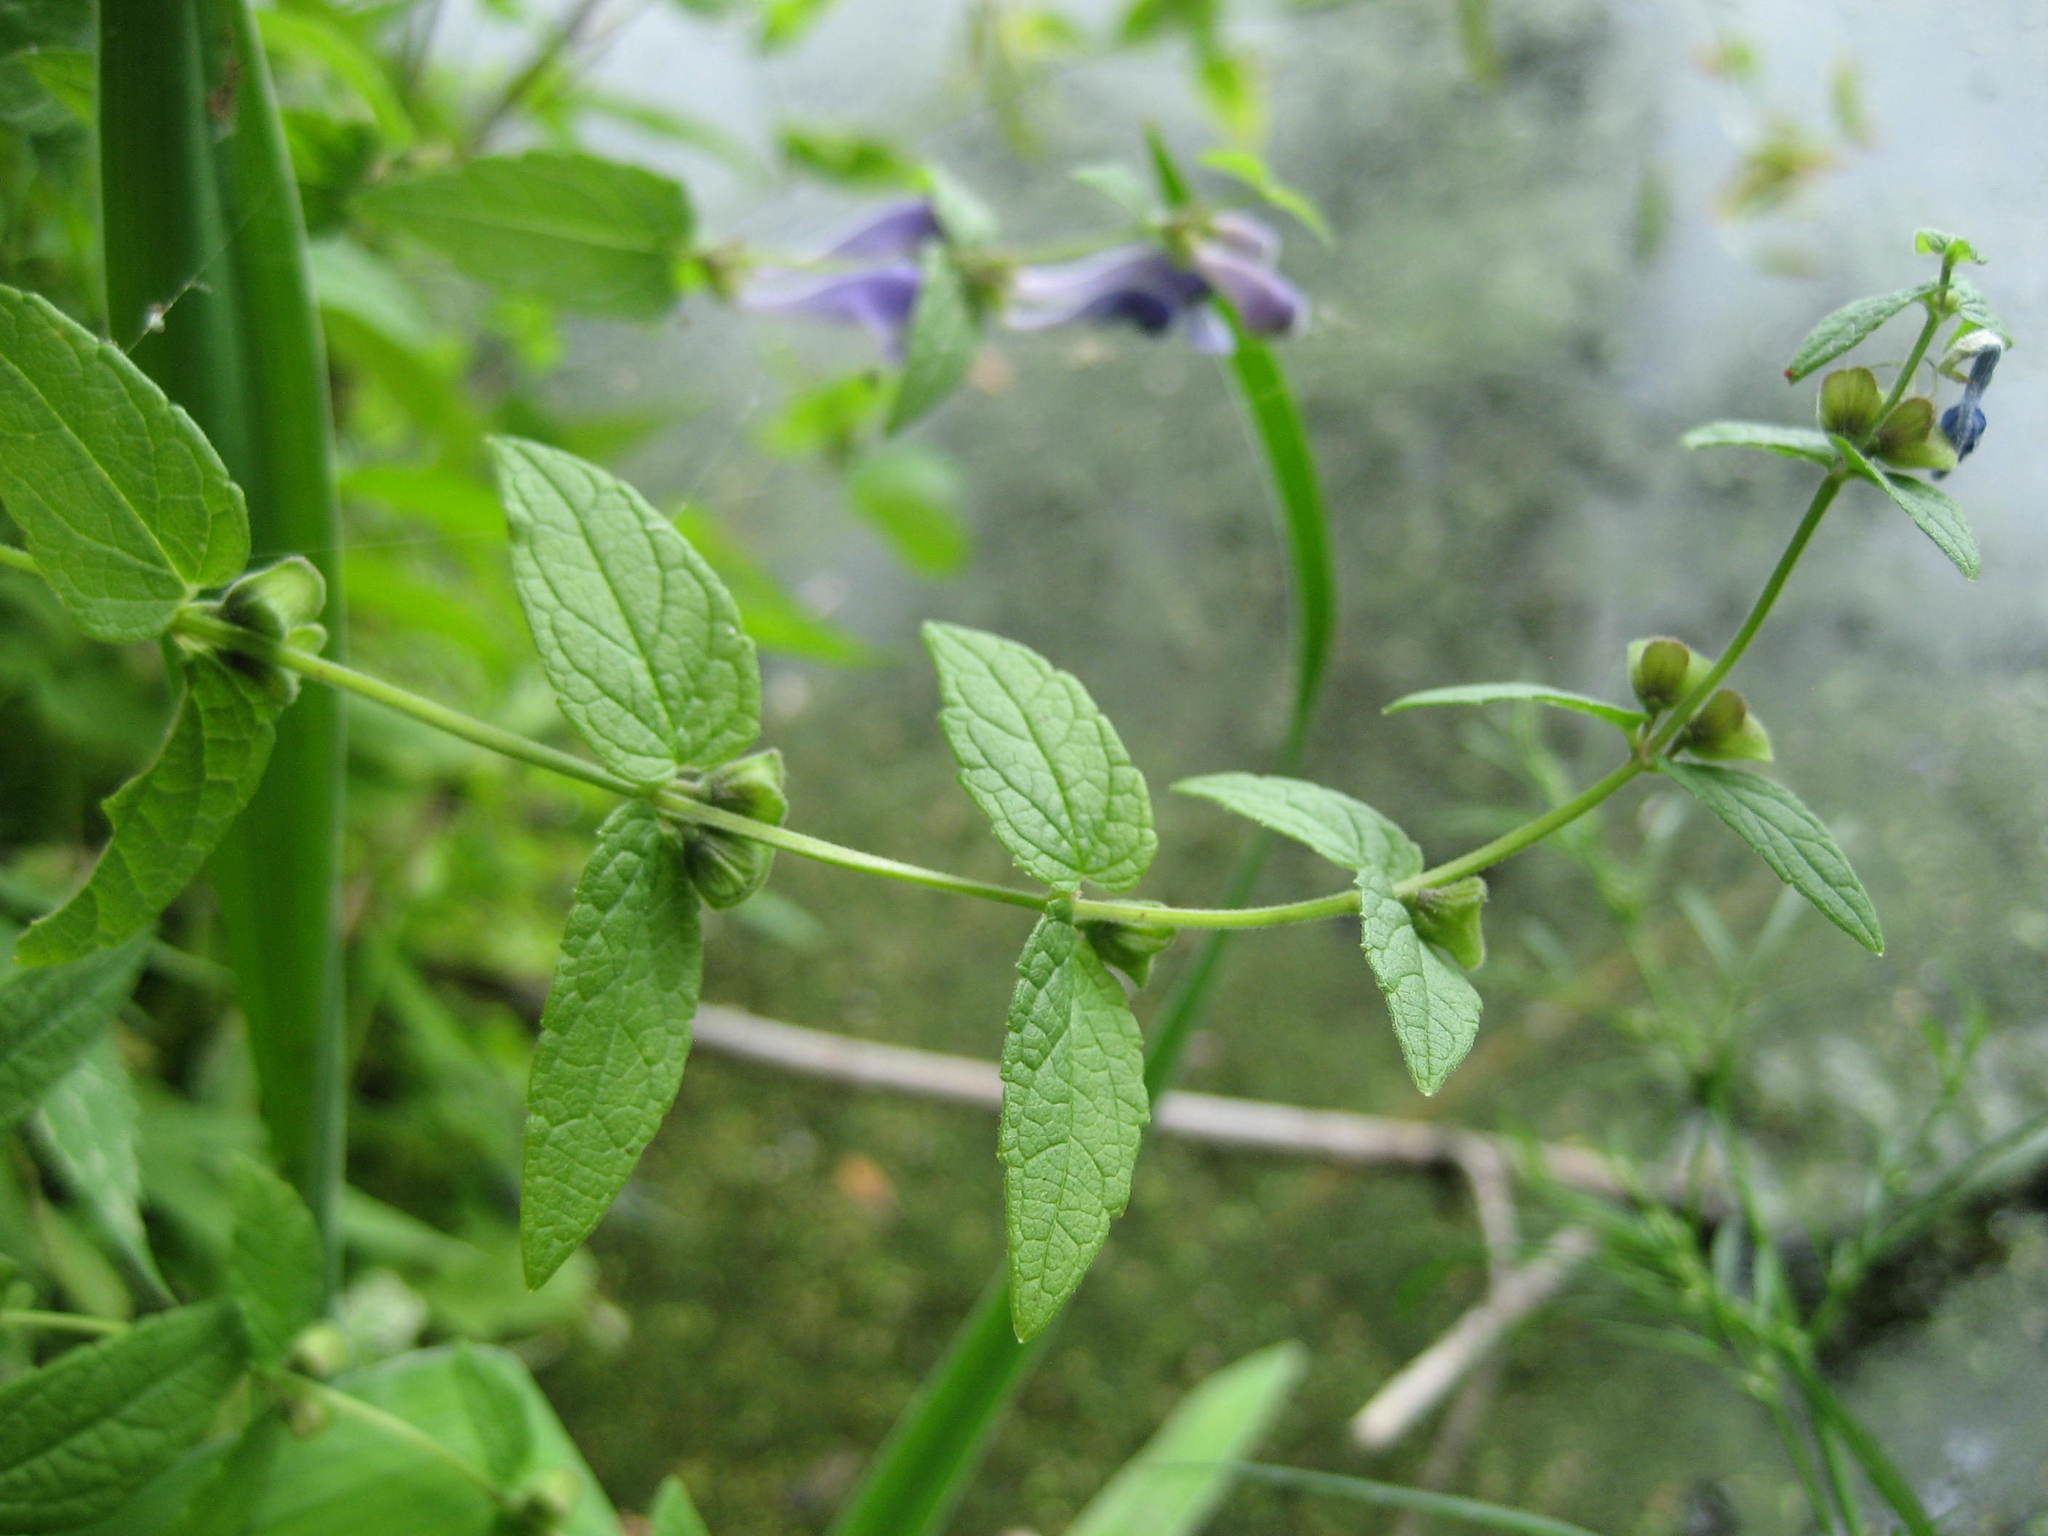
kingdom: Plantae
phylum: Tracheophyta
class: Magnoliopsida
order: Lamiales
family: Lamiaceae
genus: Scutellaria
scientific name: Scutellaria galericulata
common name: Skullcap
